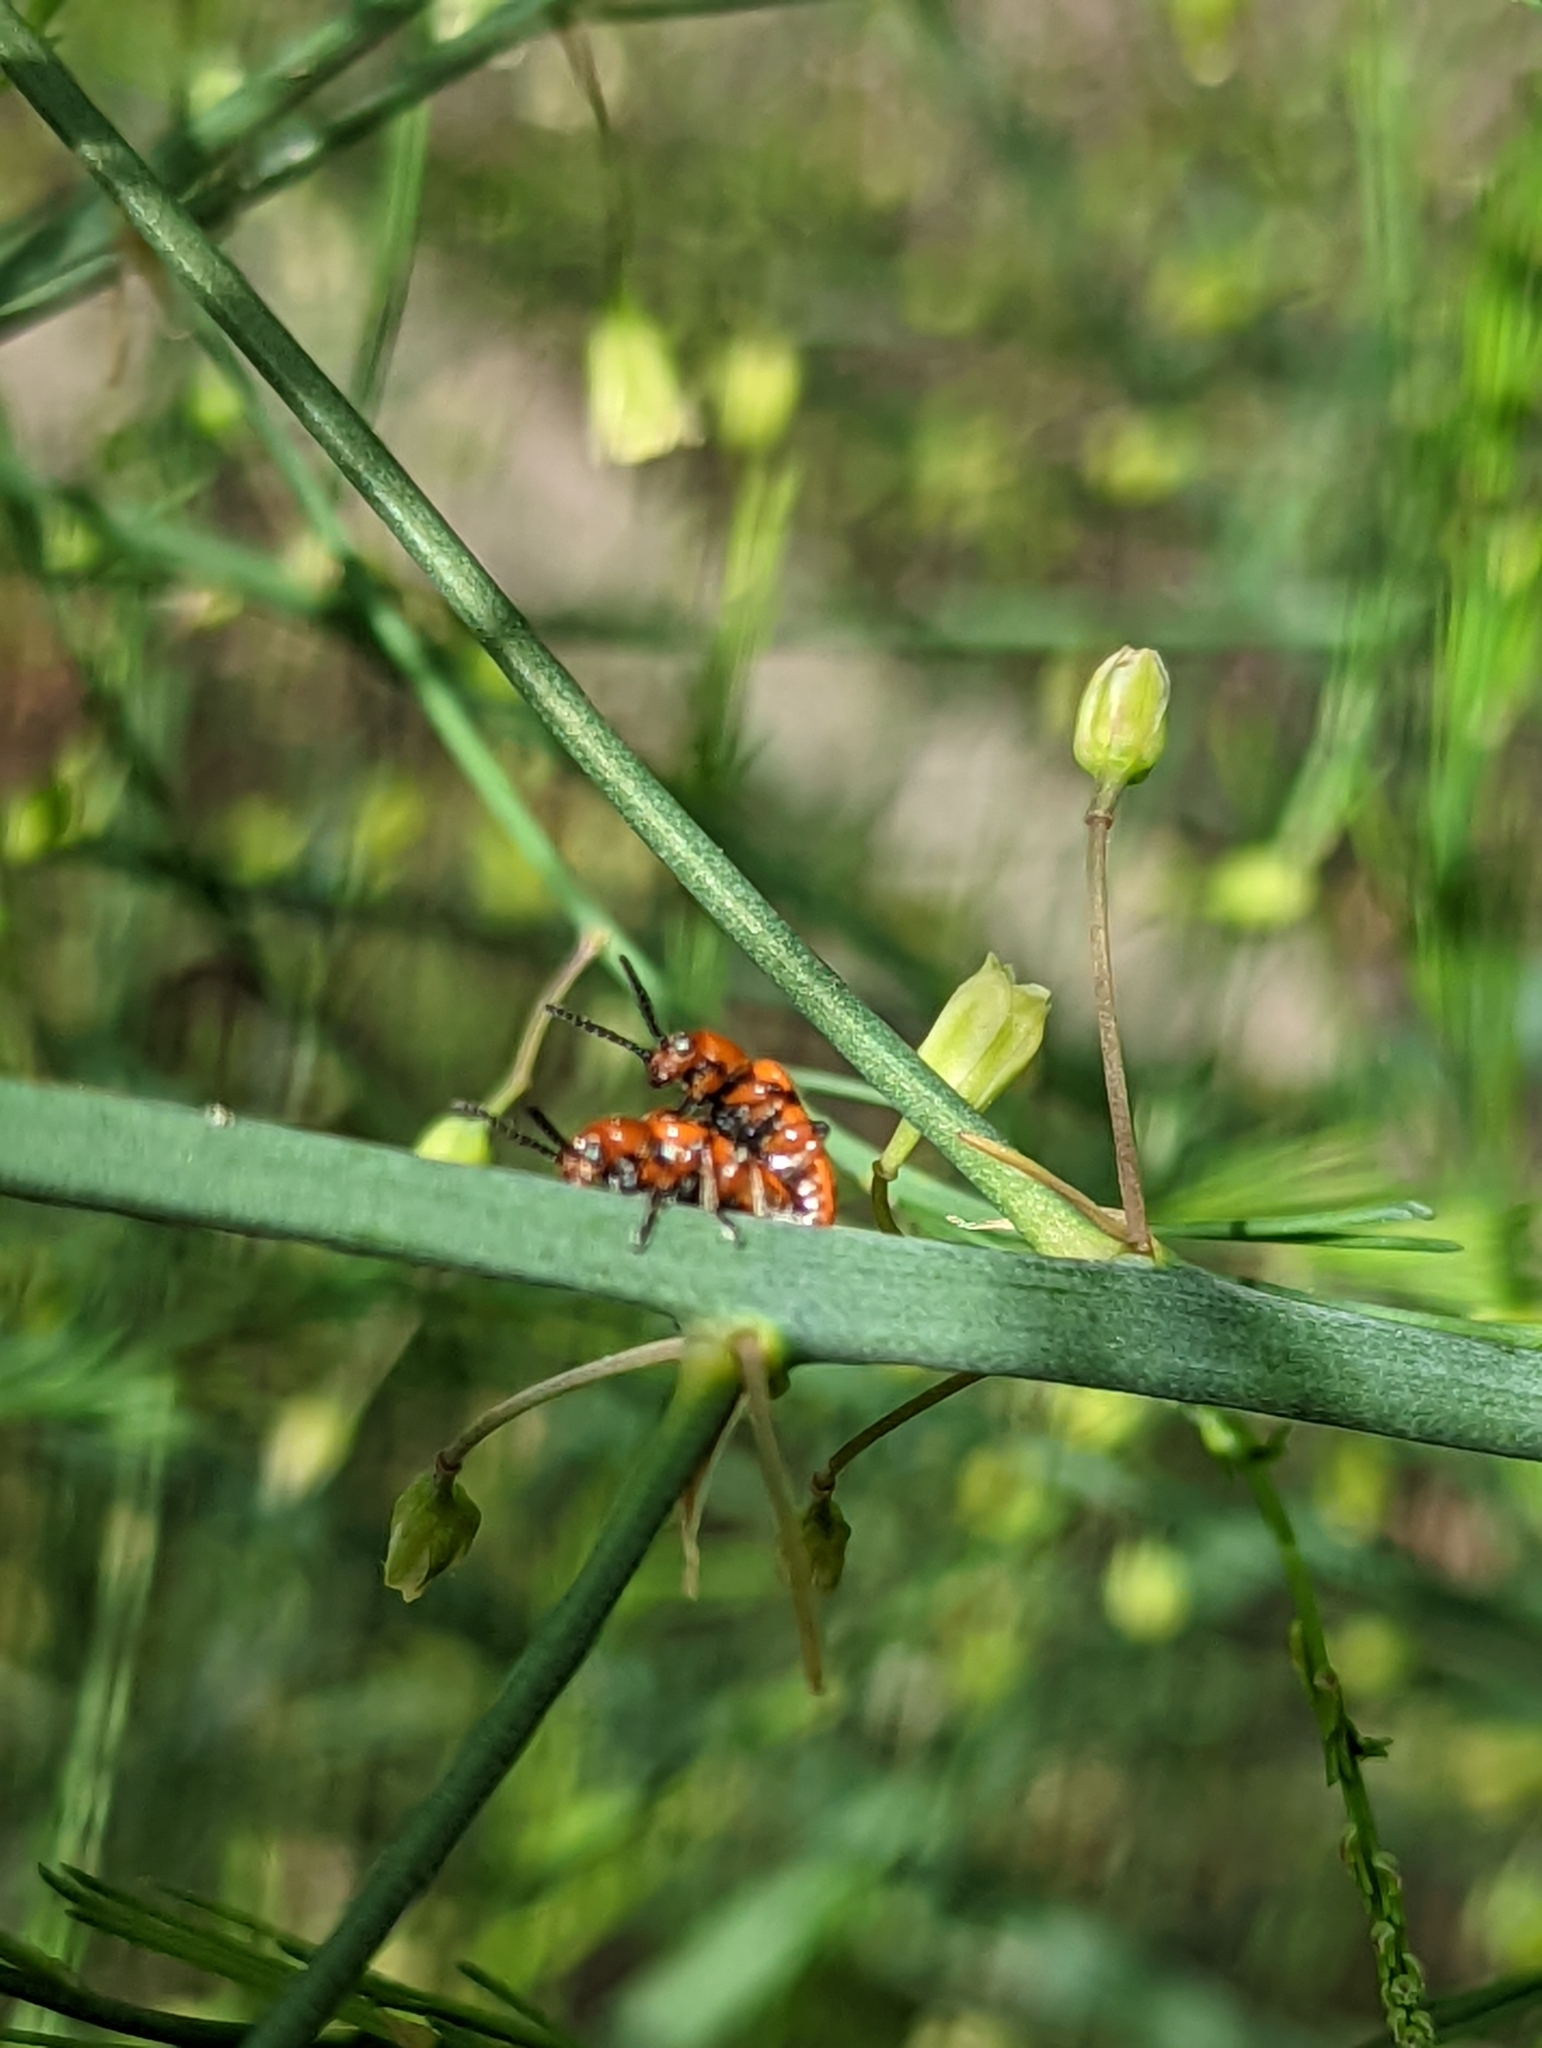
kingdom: Animalia
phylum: Arthropoda
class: Insecta
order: Coleoptera
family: Chrysomelidae
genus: Crioceris
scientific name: Crioceris duodecimpunctata
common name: Twelve-spotted asparagus beetle
